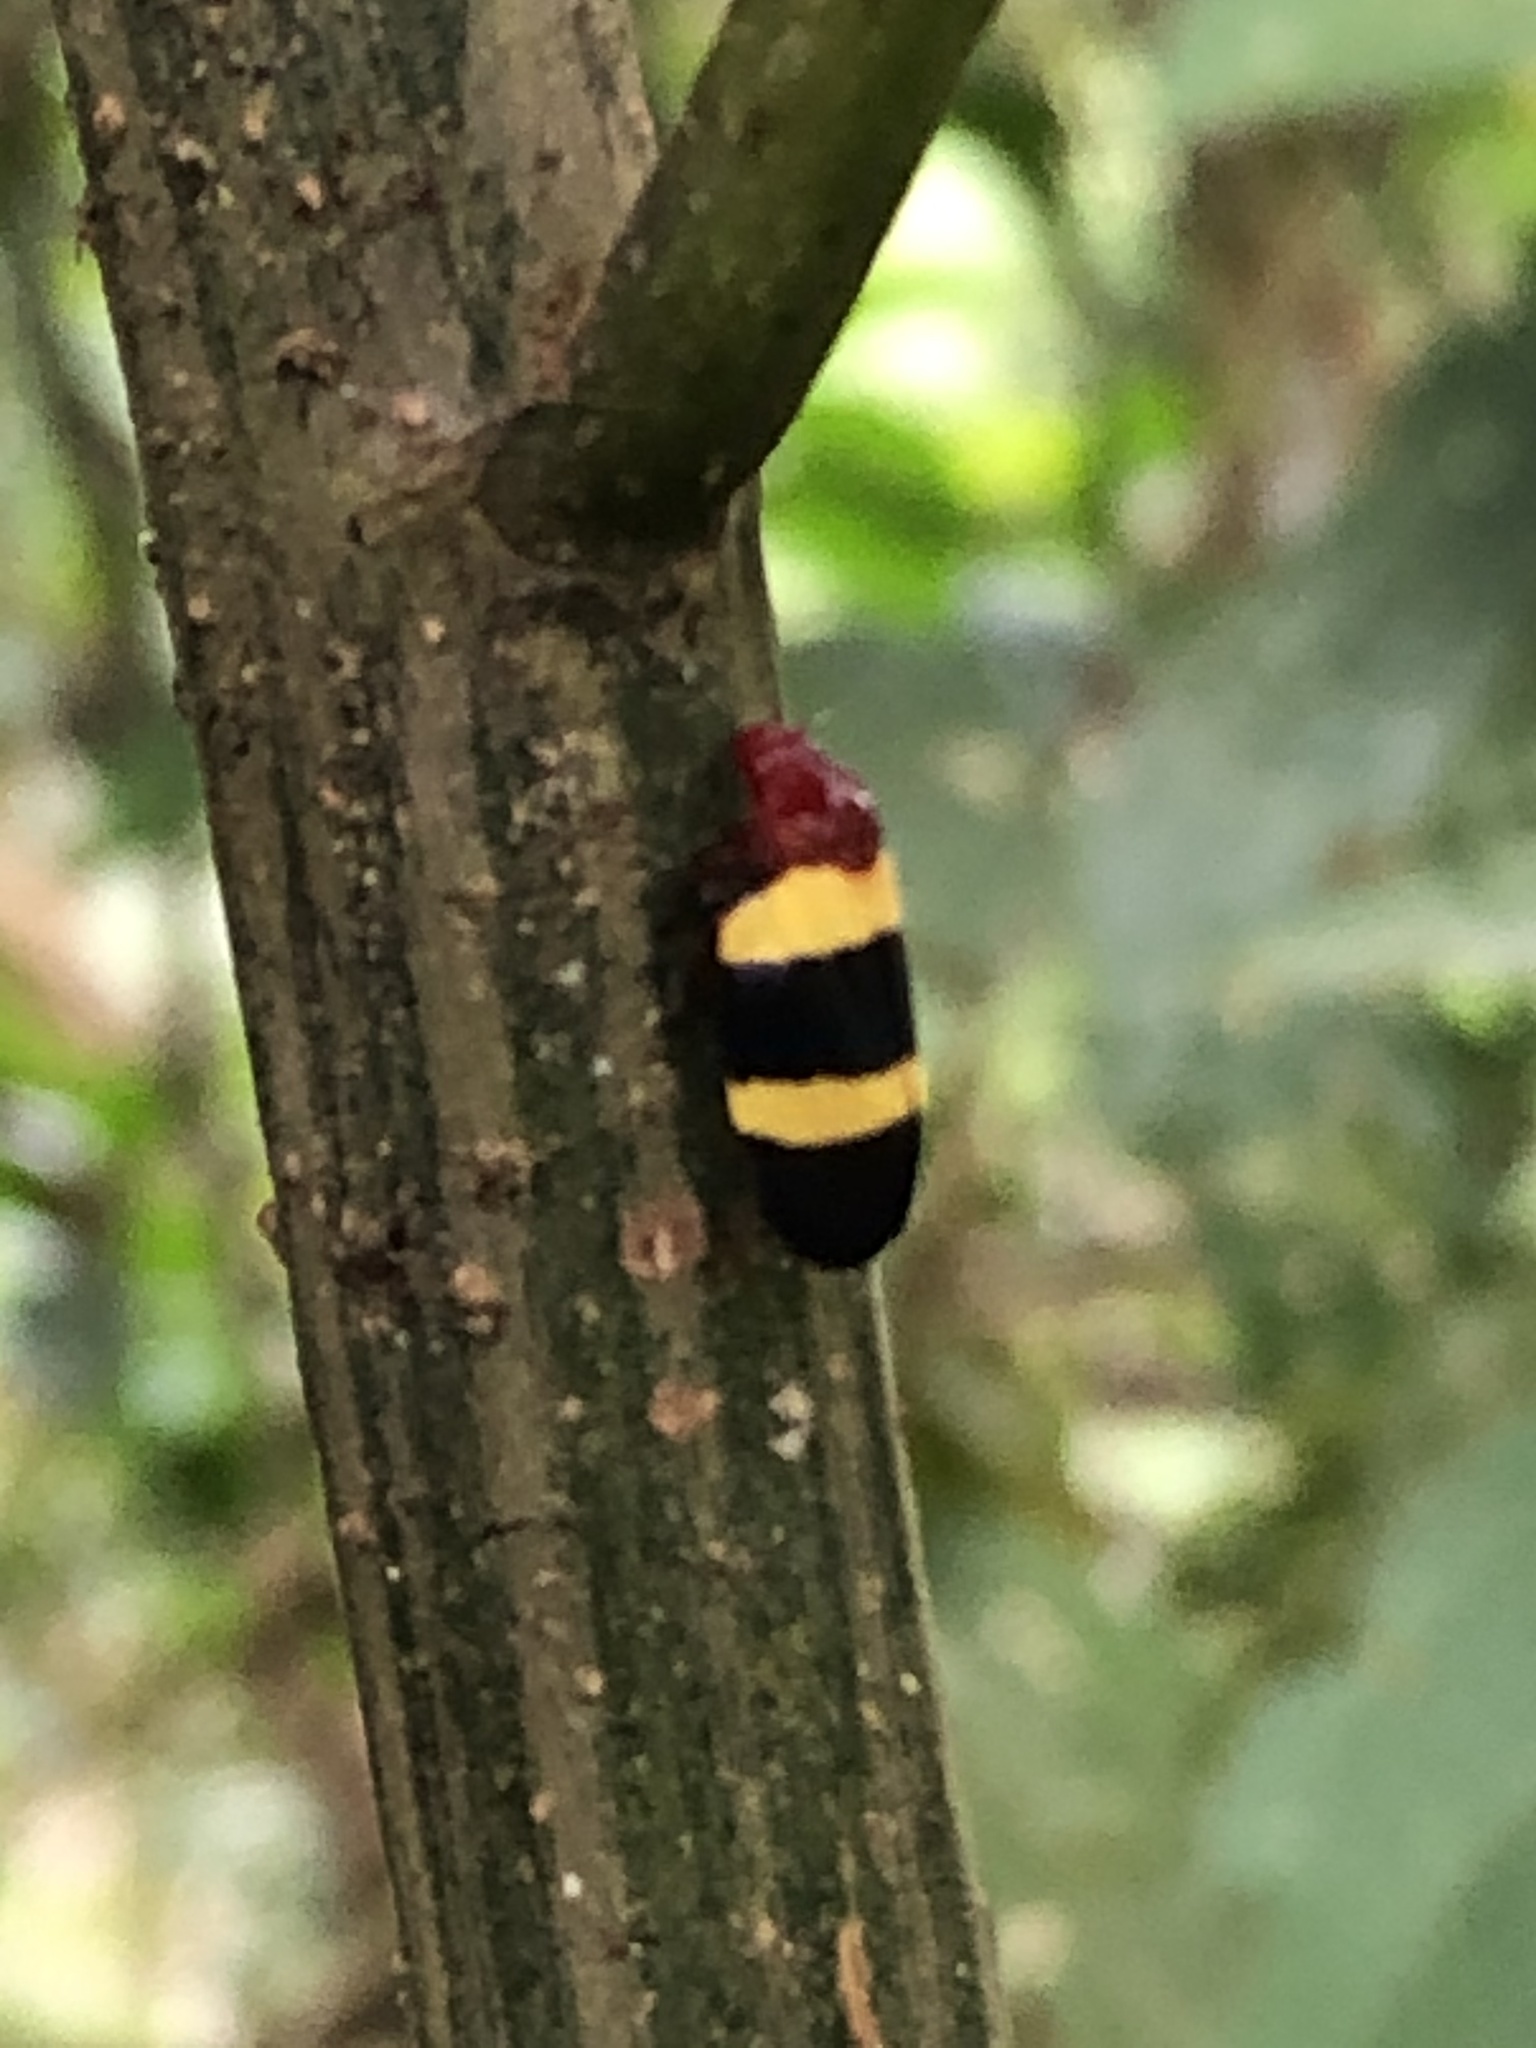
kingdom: Animalia
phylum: Arthropoda
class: Insecta
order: Hemiptera
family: Cercopidae
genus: Sphenorhina
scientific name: Sphenorhina rubra
